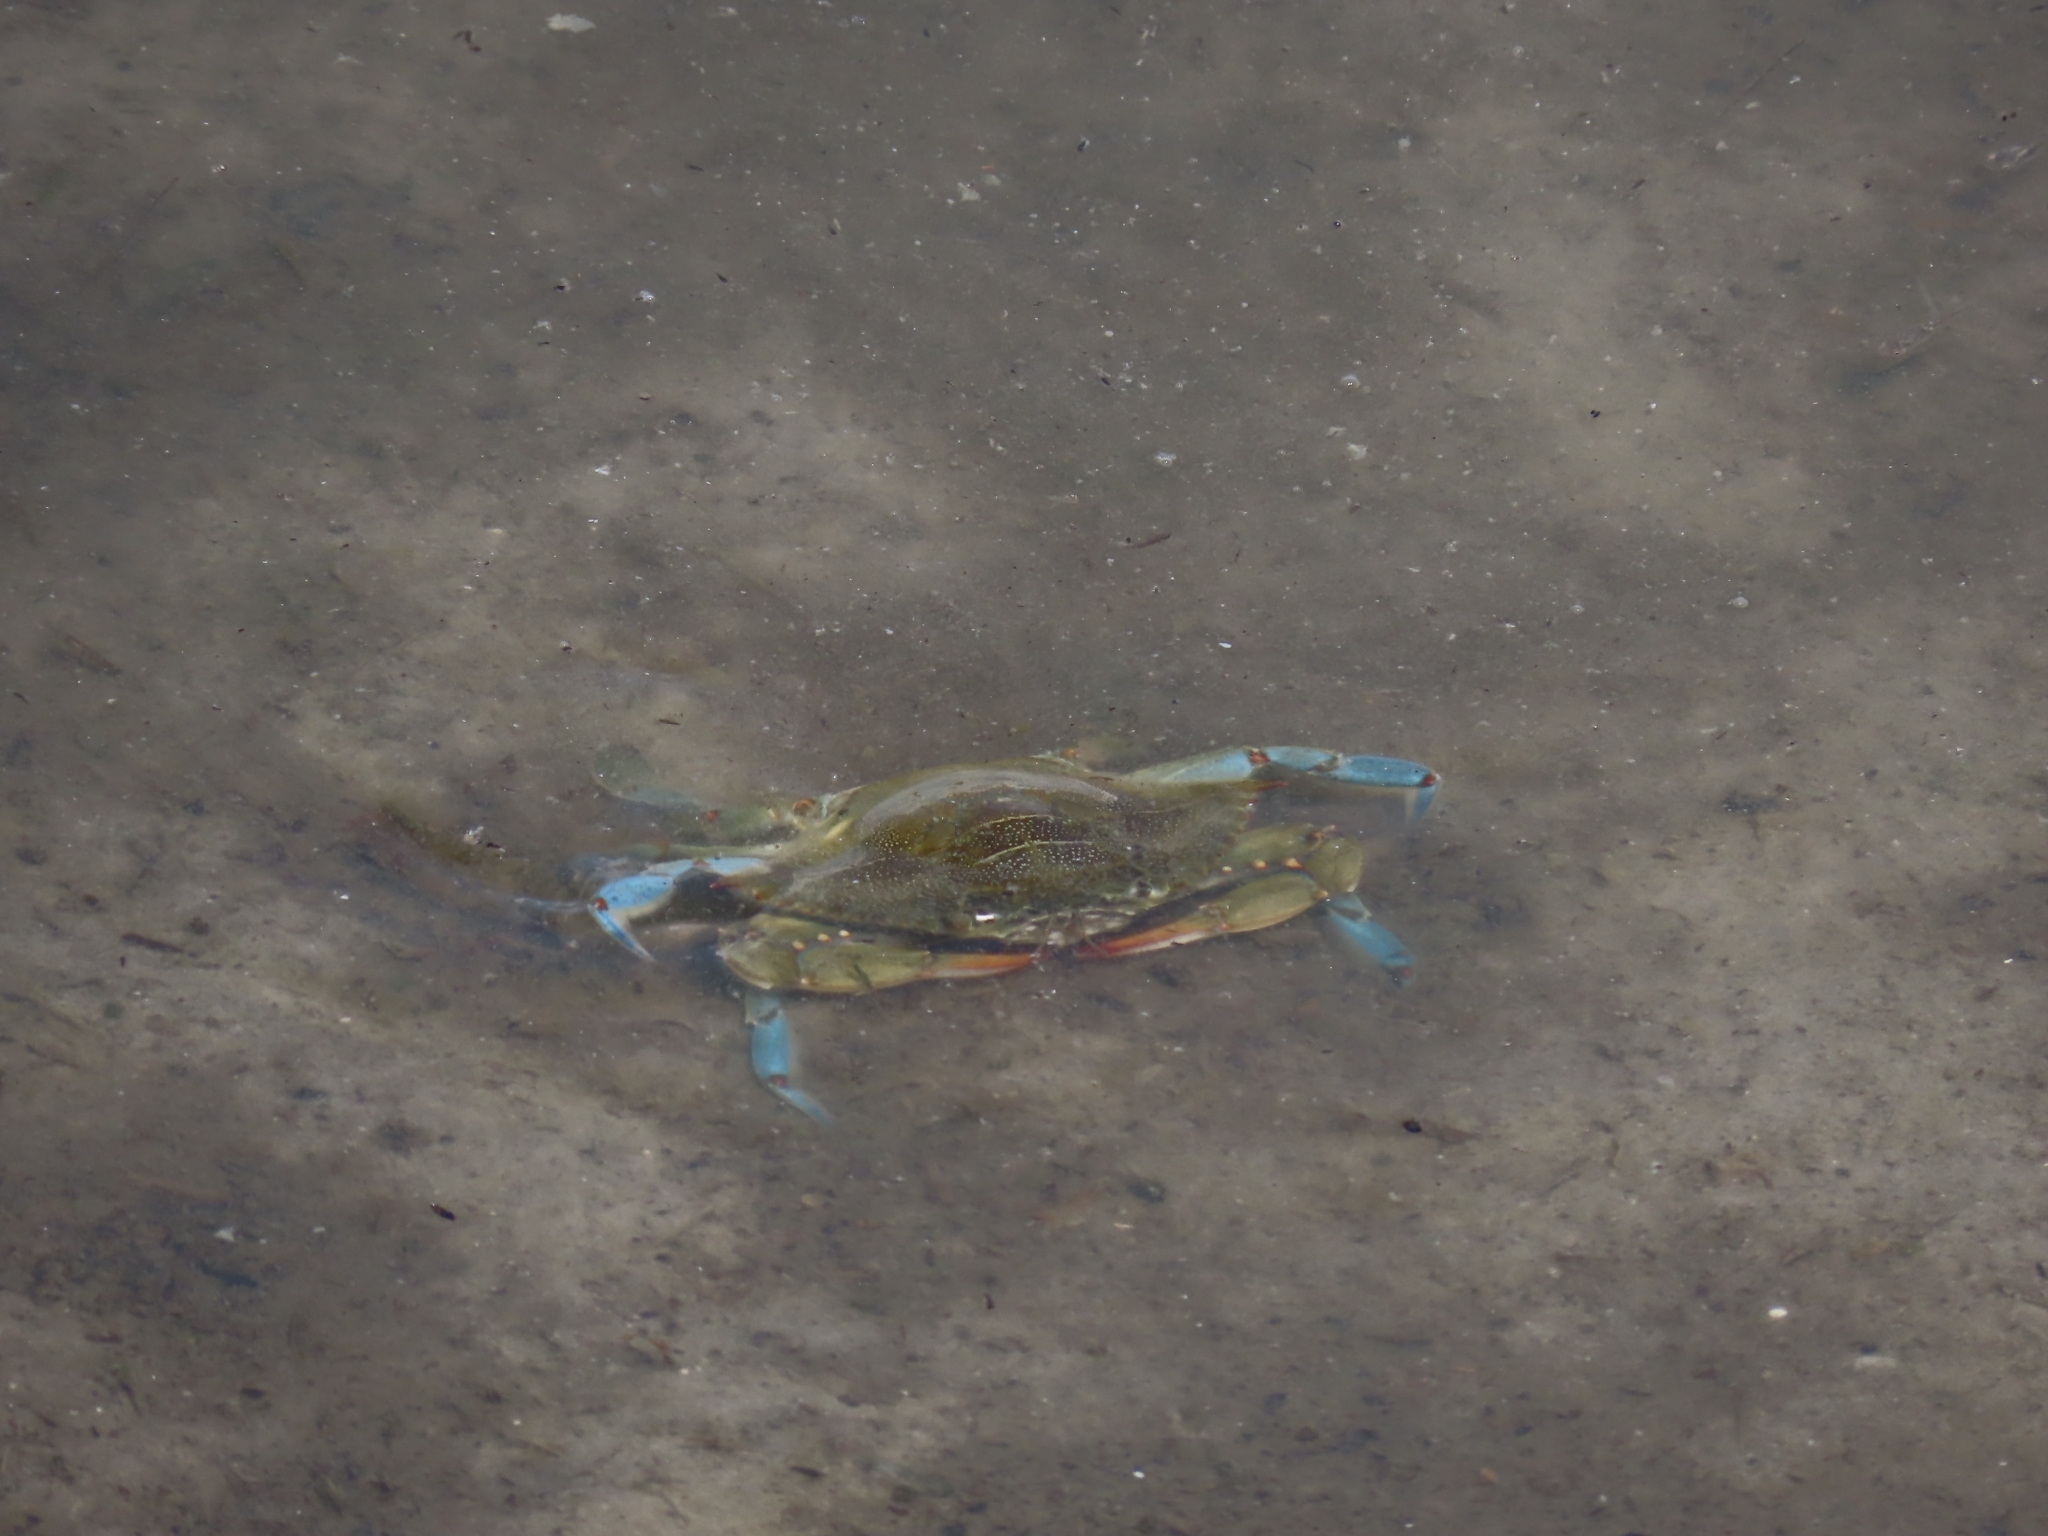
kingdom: Animalia
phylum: Arthropoda
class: Malacostraca
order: Decapoda
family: Portunidae
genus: Callinectes
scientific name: Callinectes sapidus
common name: Blue crab
